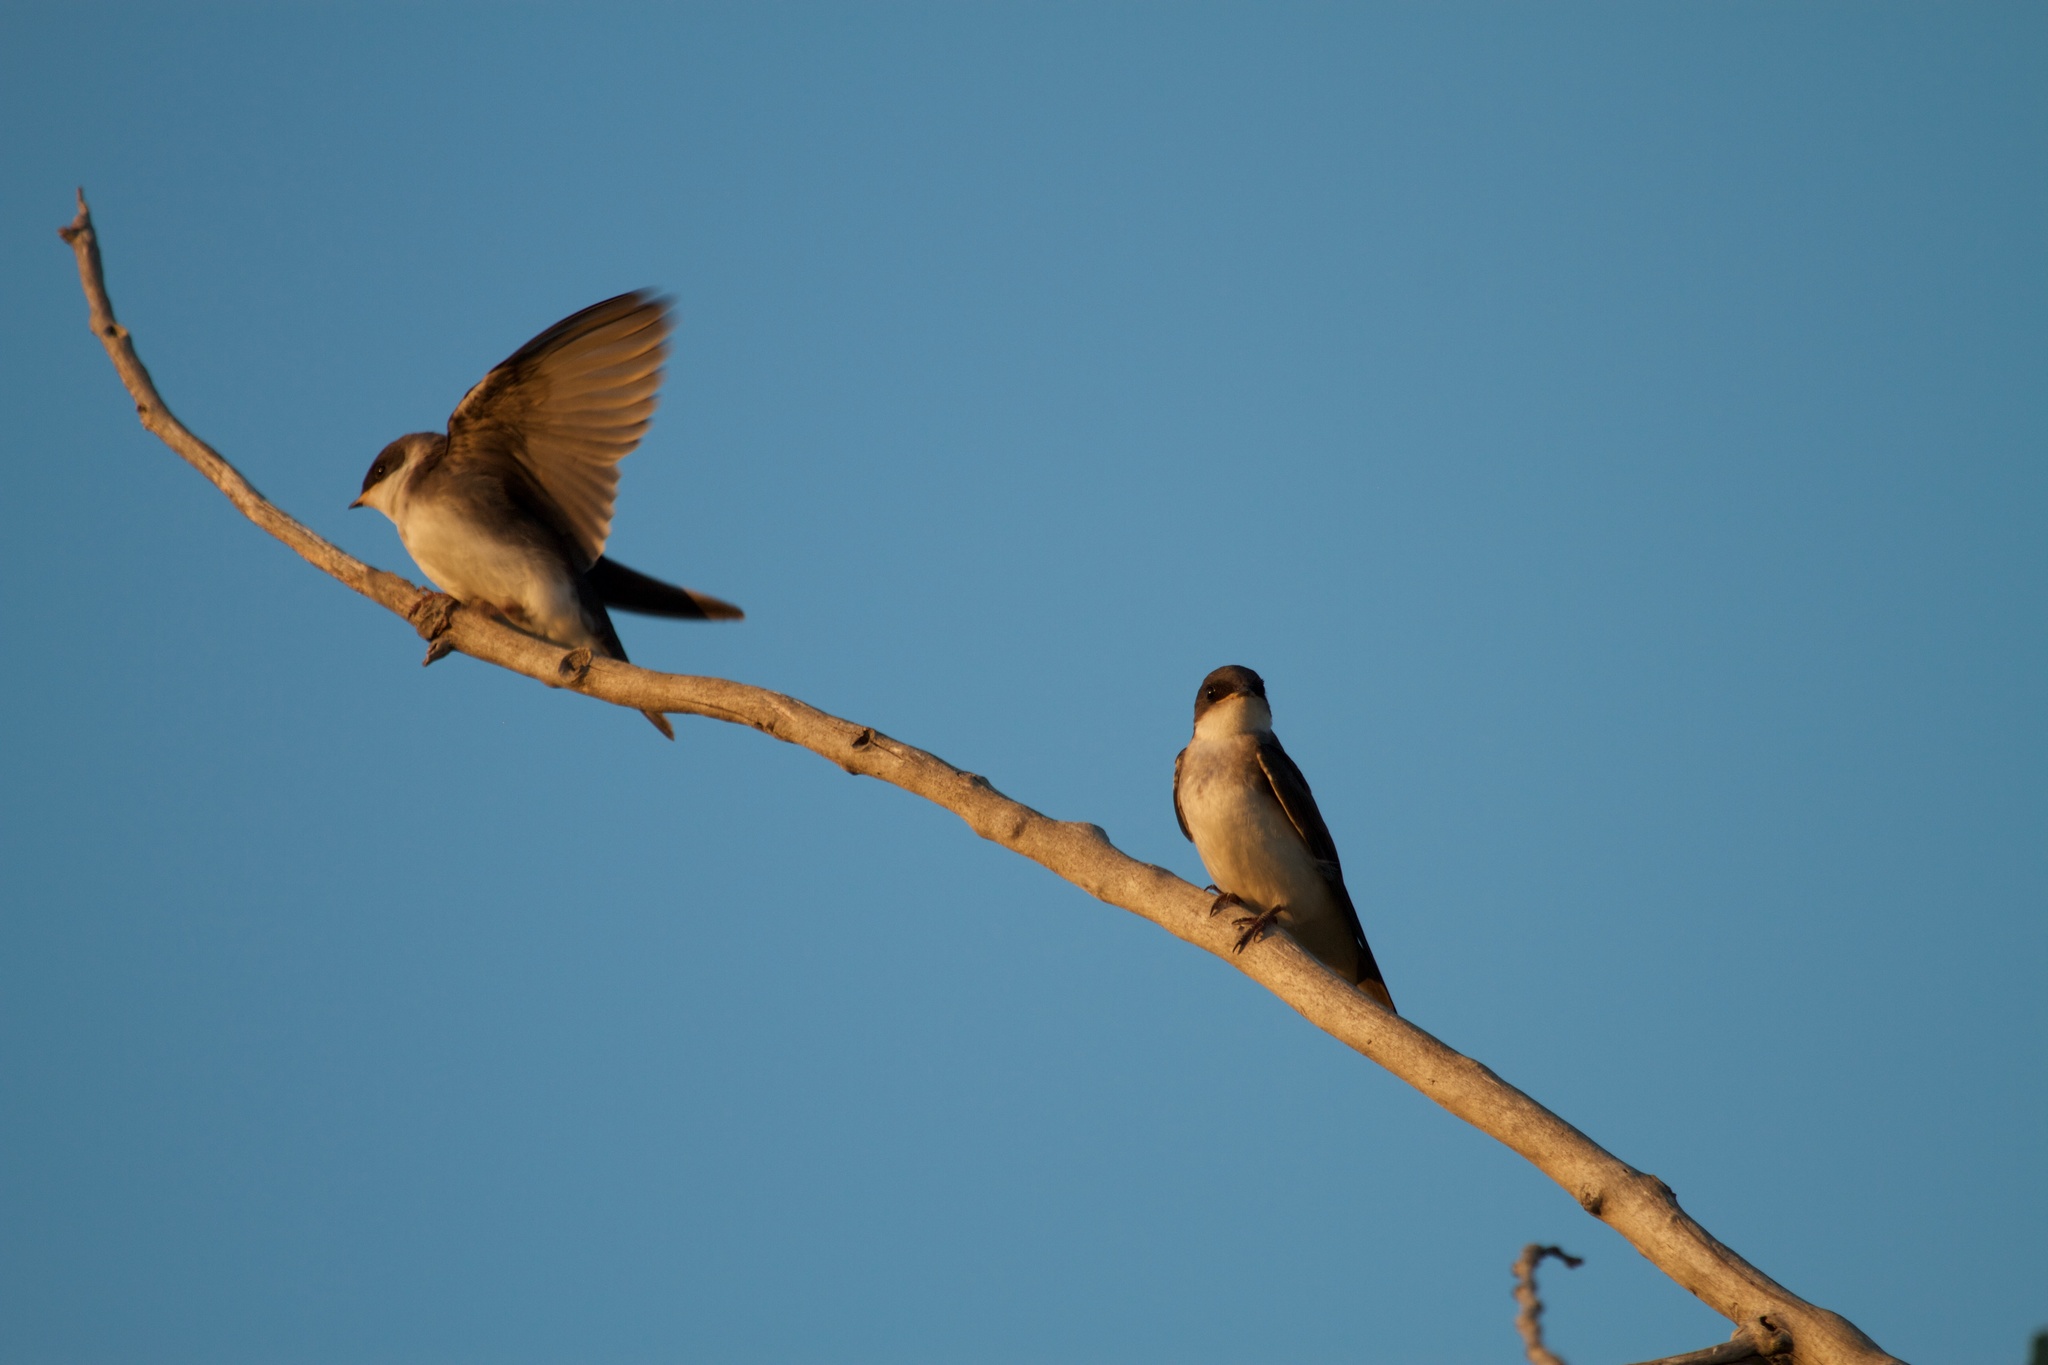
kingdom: Animalia
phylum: Chordata
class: Aves
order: Passeriformes
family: Hirundinidae
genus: Tachycineta
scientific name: Tachycineta bicolor
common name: Tree swallow
